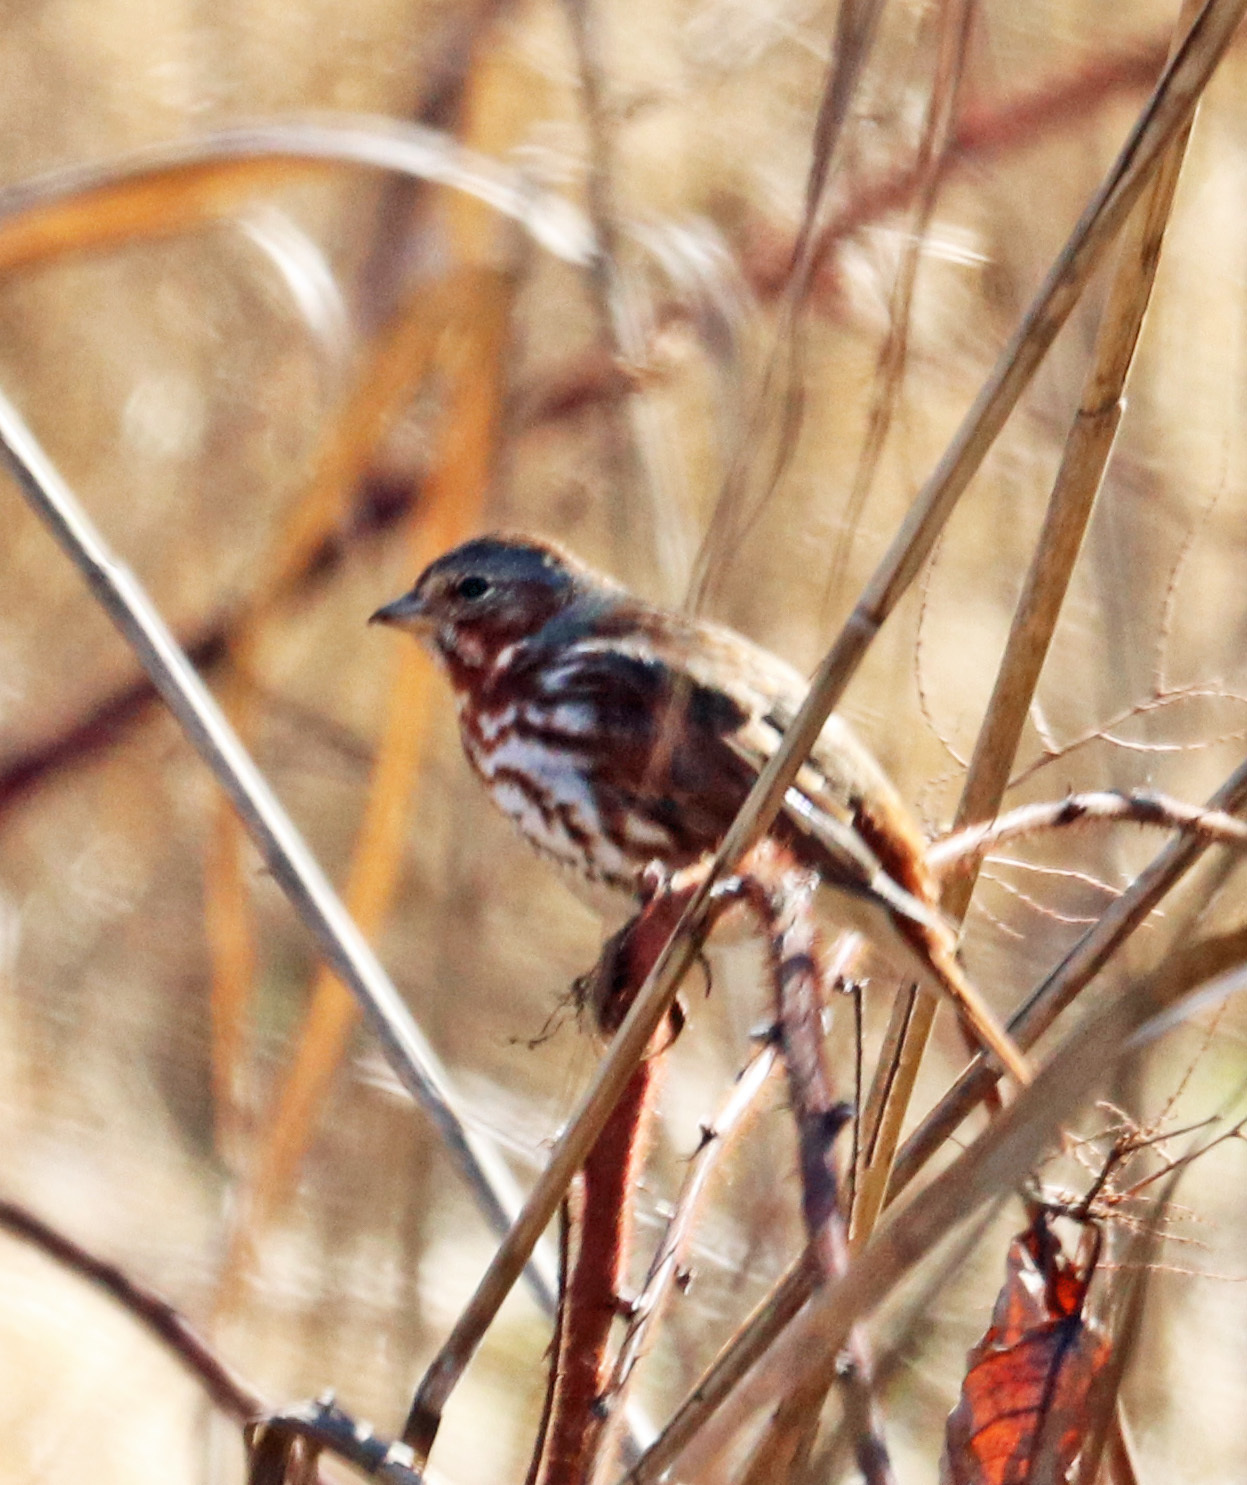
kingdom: Animalia
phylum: Chordata
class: Aves
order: Passeriformes
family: Passerellidae
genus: Passerella
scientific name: Passerella iliaca
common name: Fox sparrow
